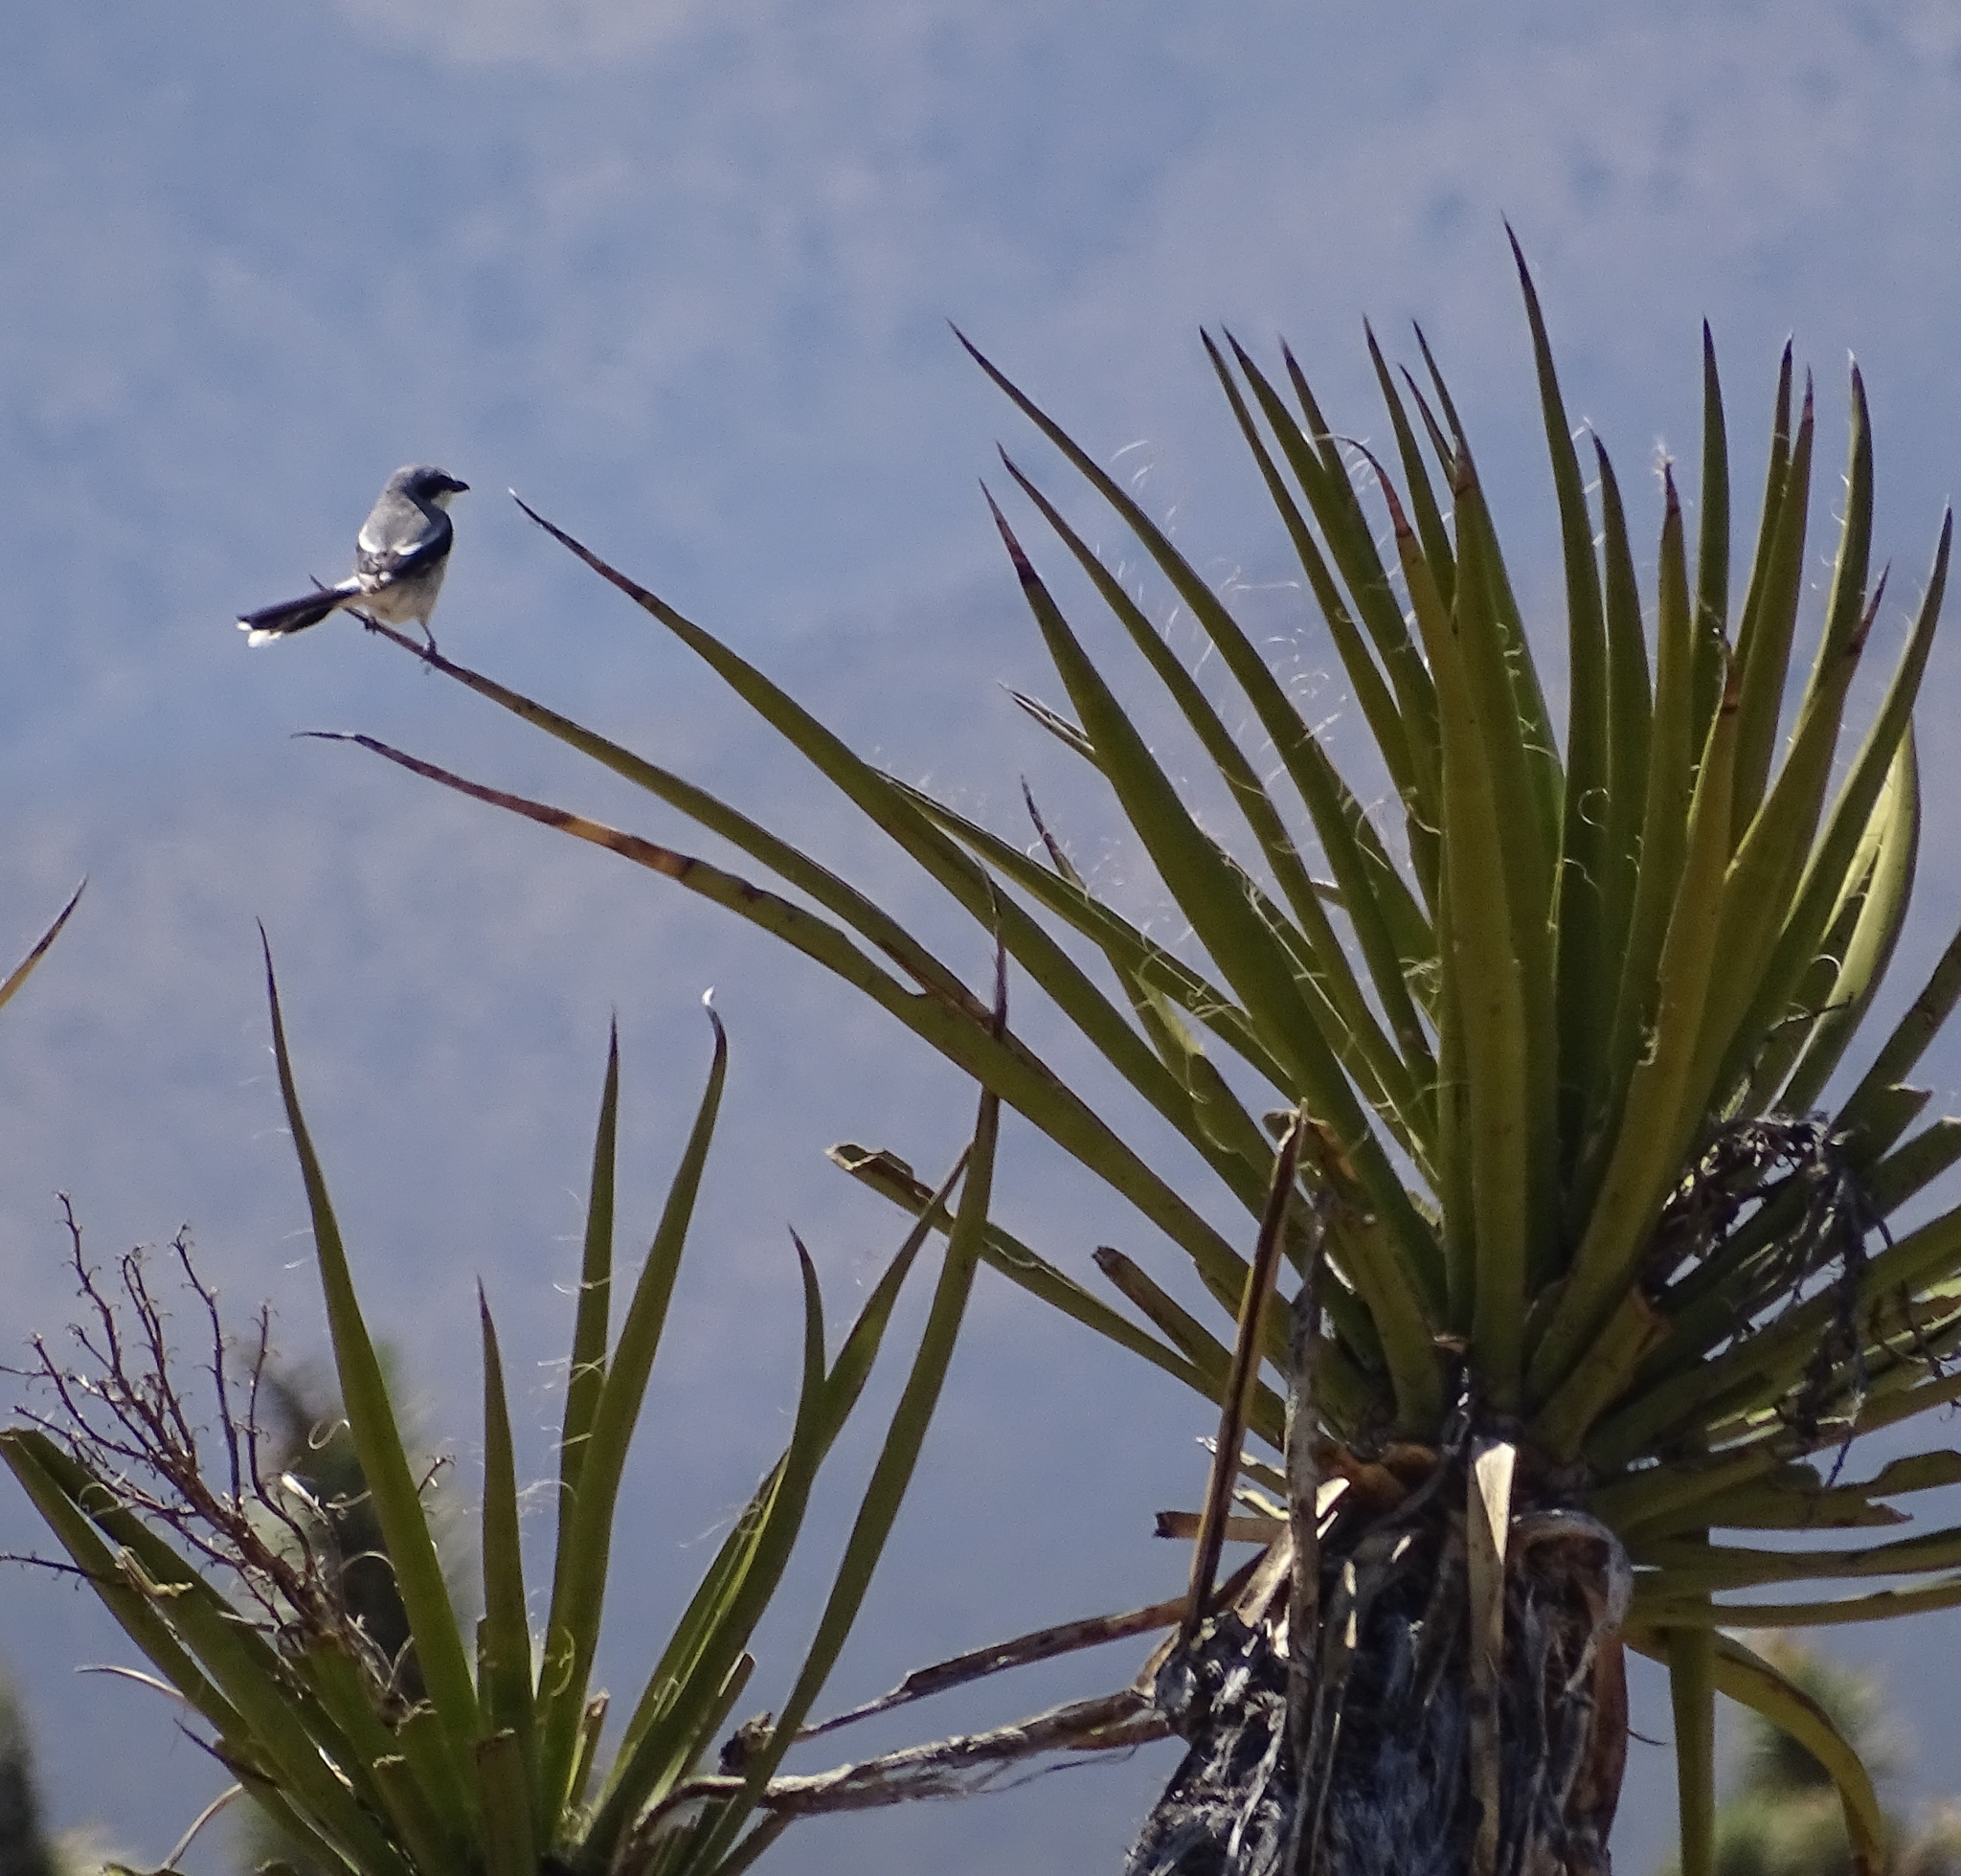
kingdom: Animalia
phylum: Chordata
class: Aves
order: Passeriformes
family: Laniidae
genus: Lanius
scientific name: Lanius ludovicianus
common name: Loggerhead shrike
